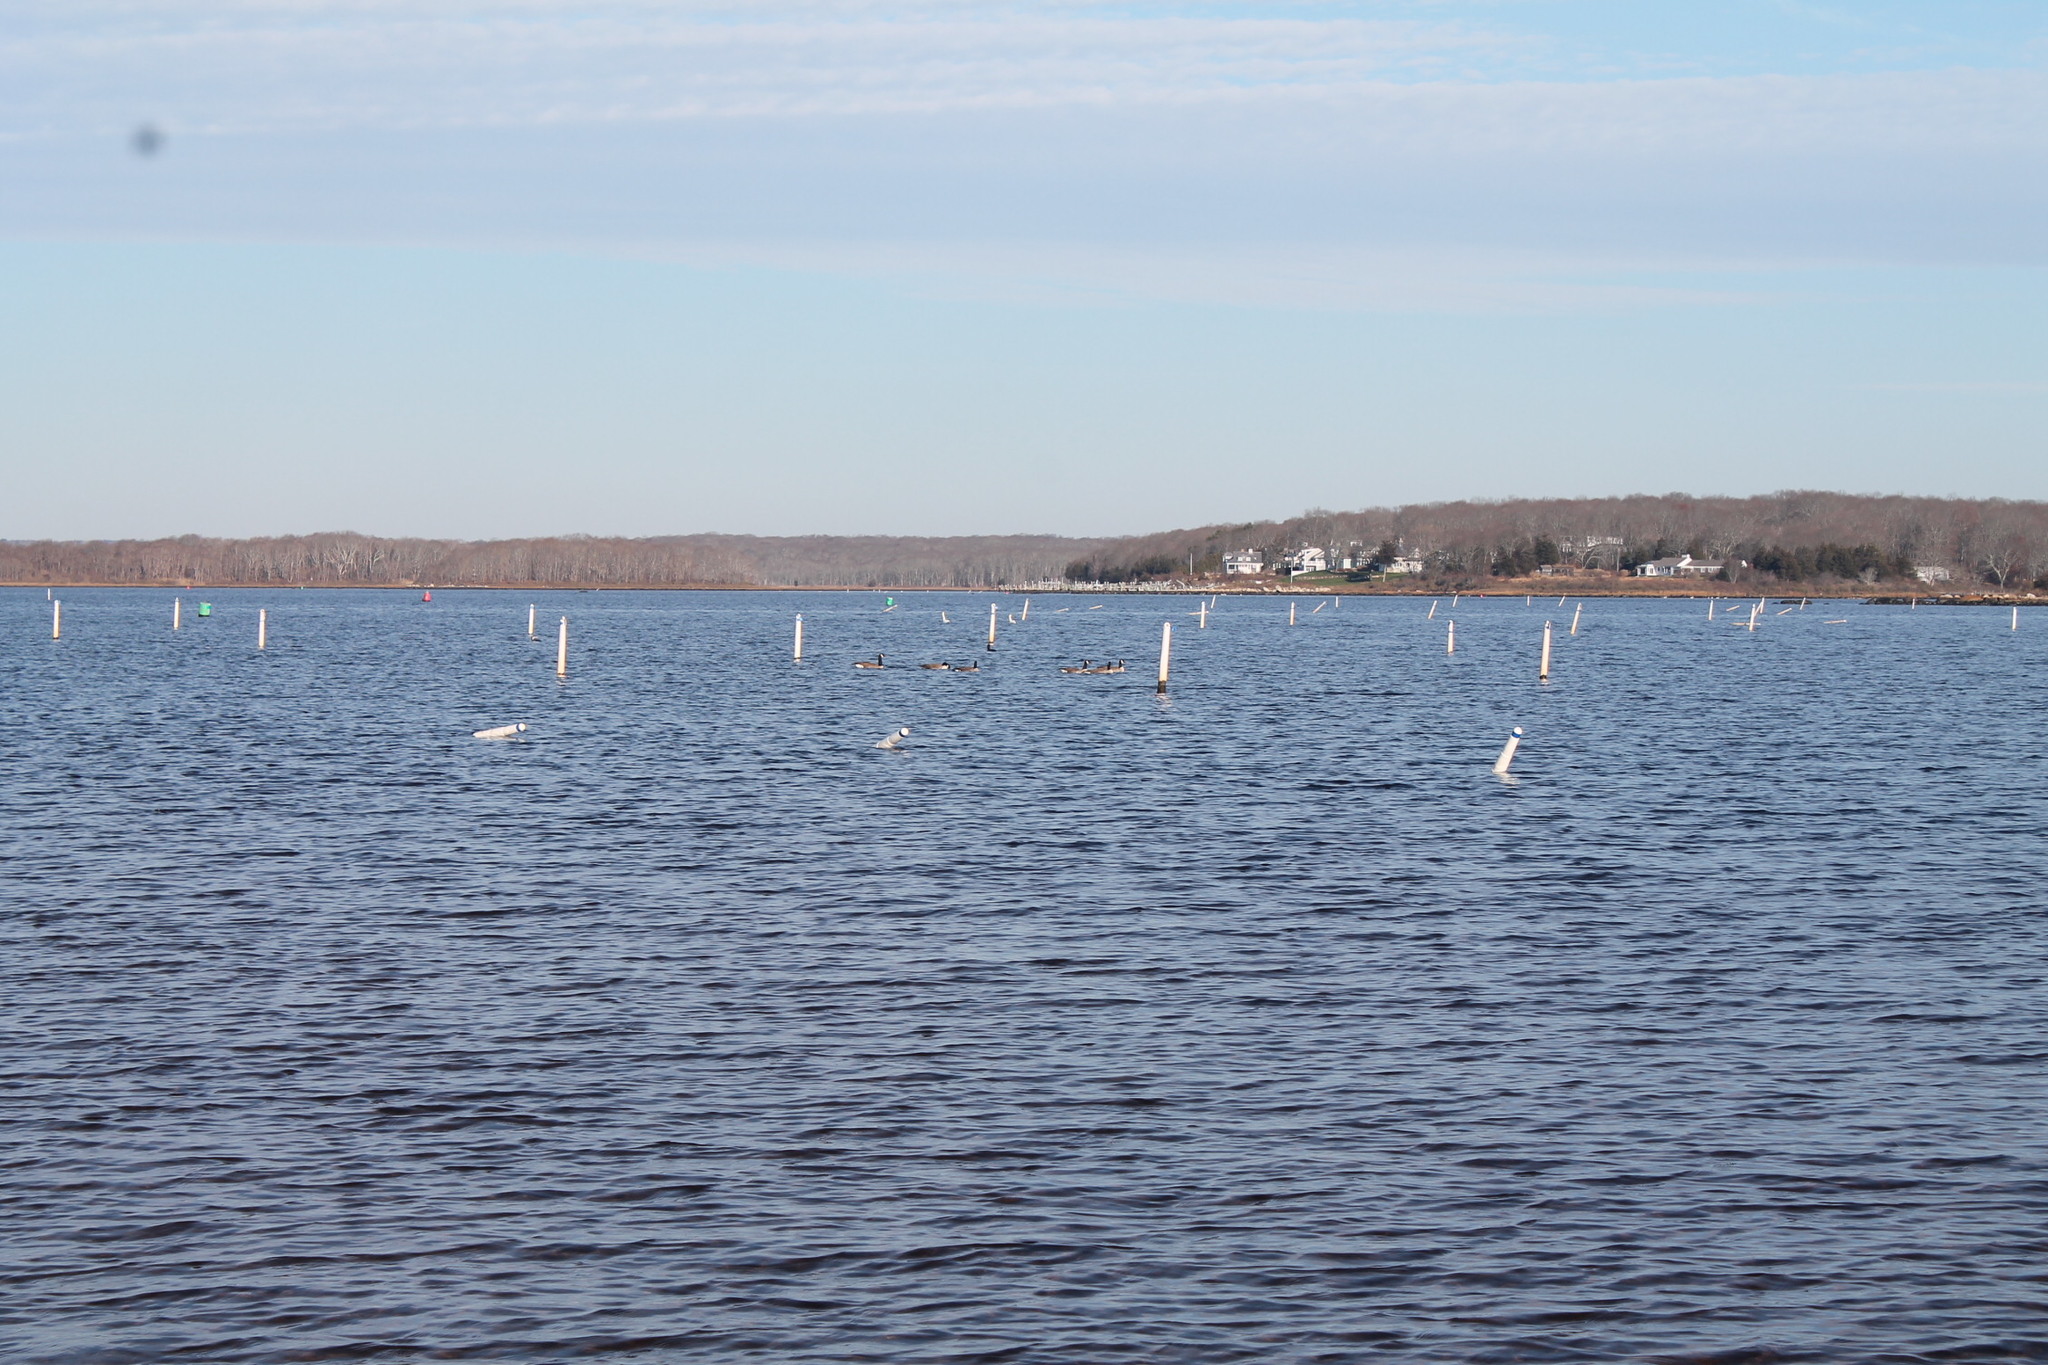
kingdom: Animalia
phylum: Chordata
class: Aves
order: Anseriformes
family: Anatidae
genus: Branta
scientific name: Branta canadensis
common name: Canada goose
